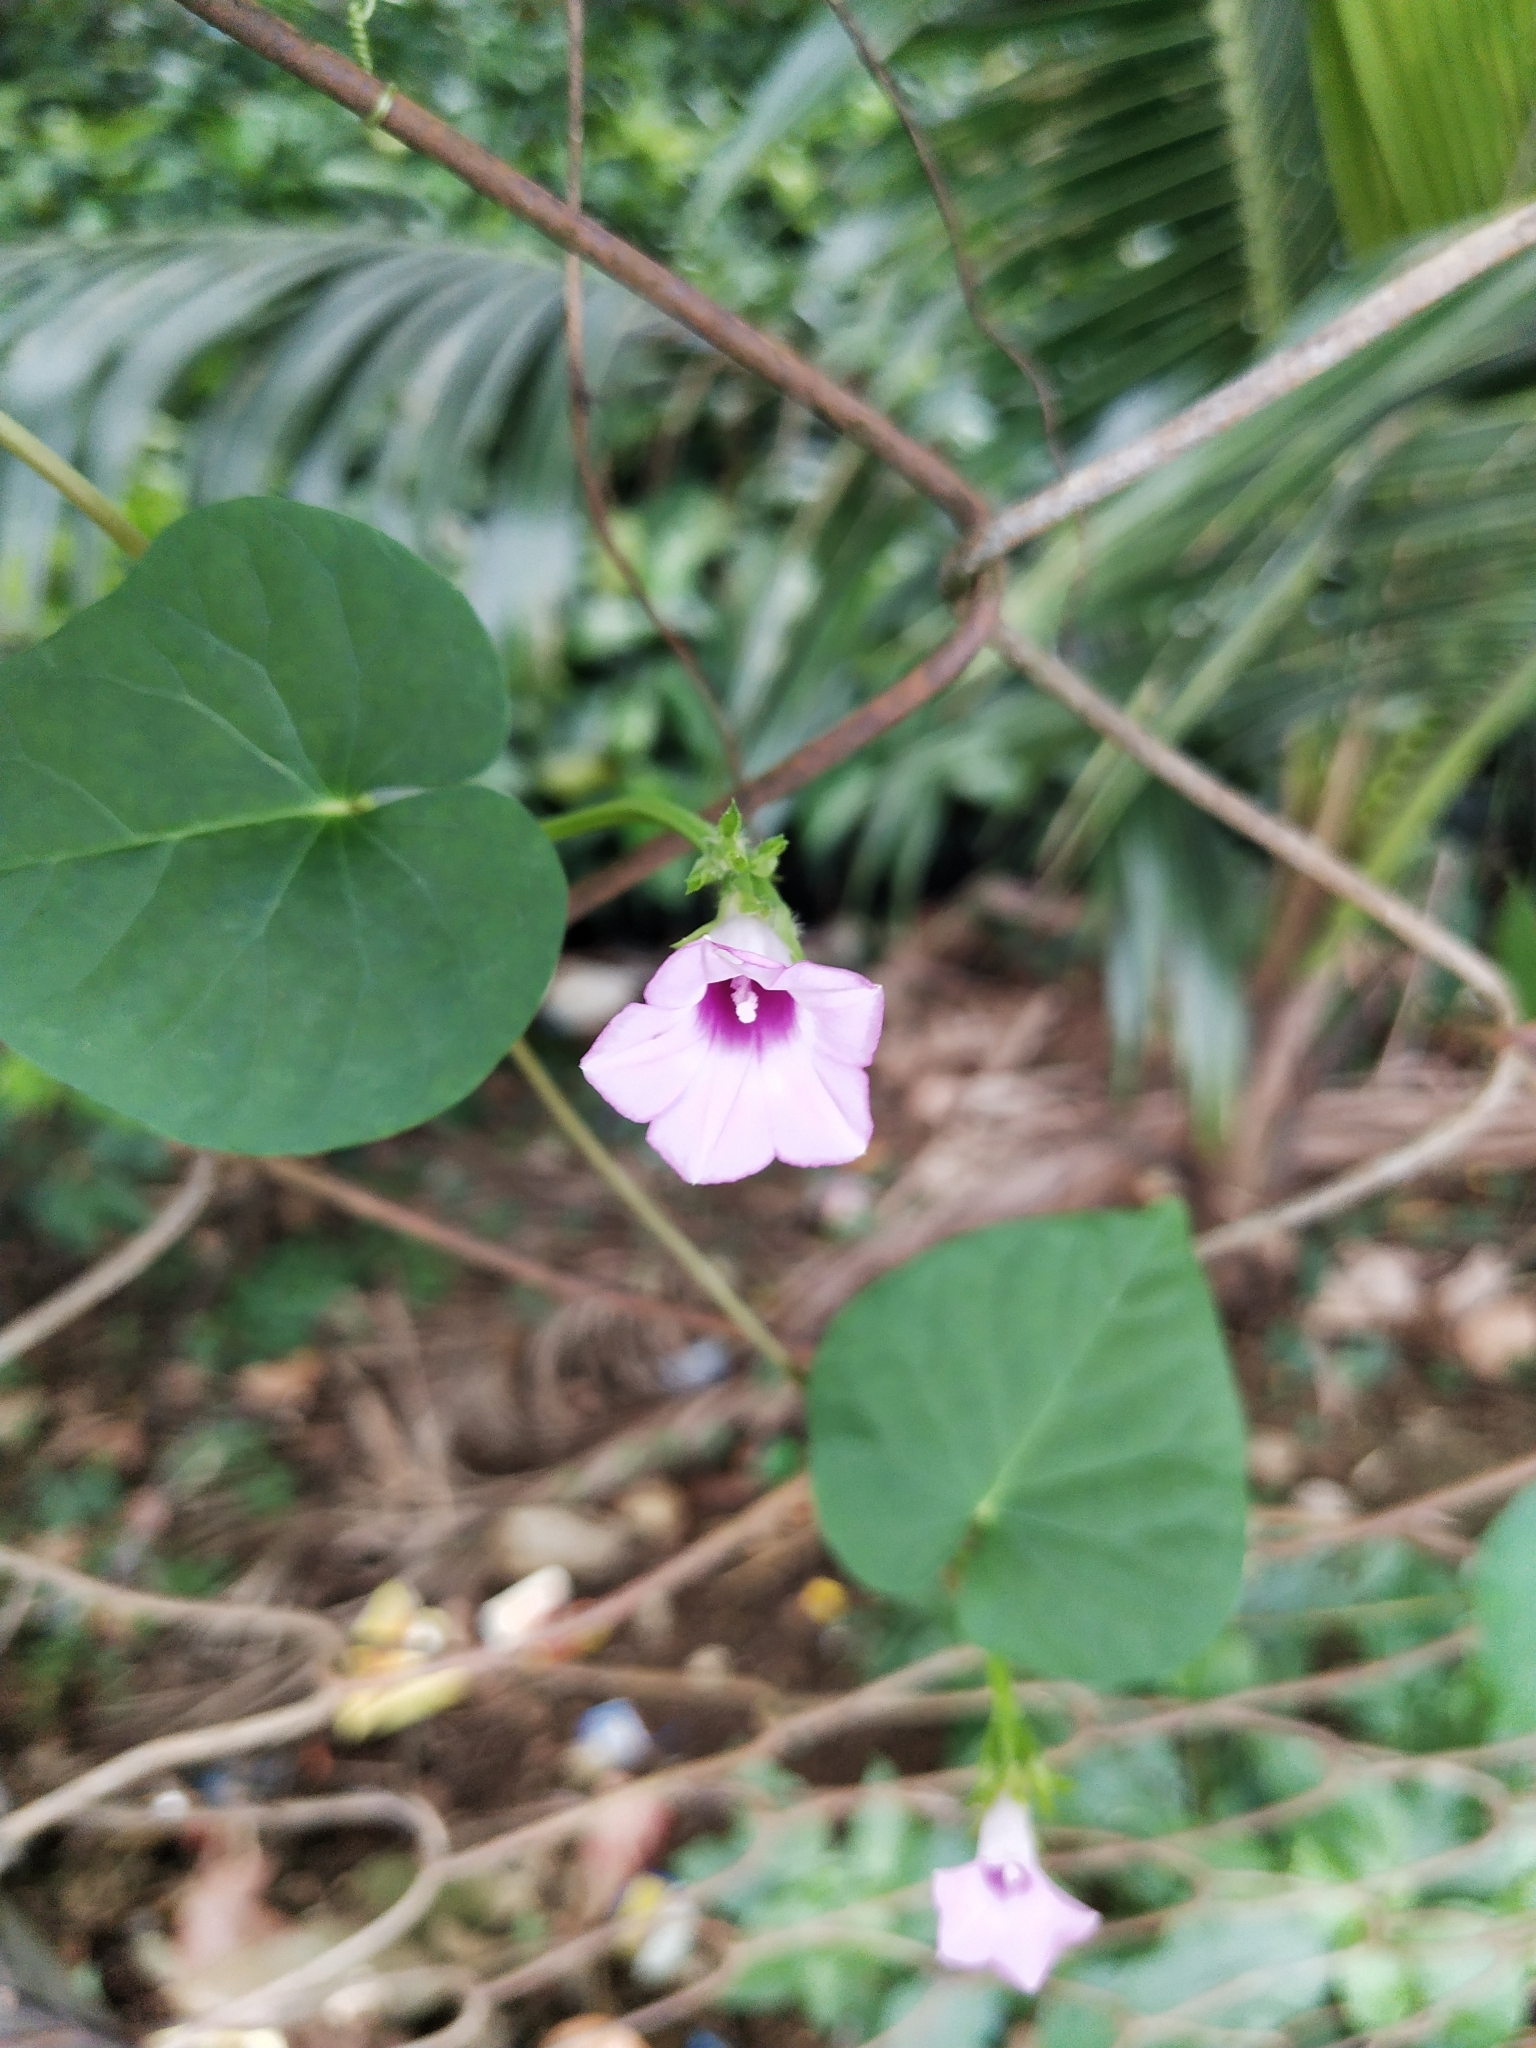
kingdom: Plantae
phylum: Tracheophyta
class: Magnoliopsida
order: Solanales
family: Convolvulaceae
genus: Ipomoea
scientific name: Ipomoea triloba
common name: Little-bell
